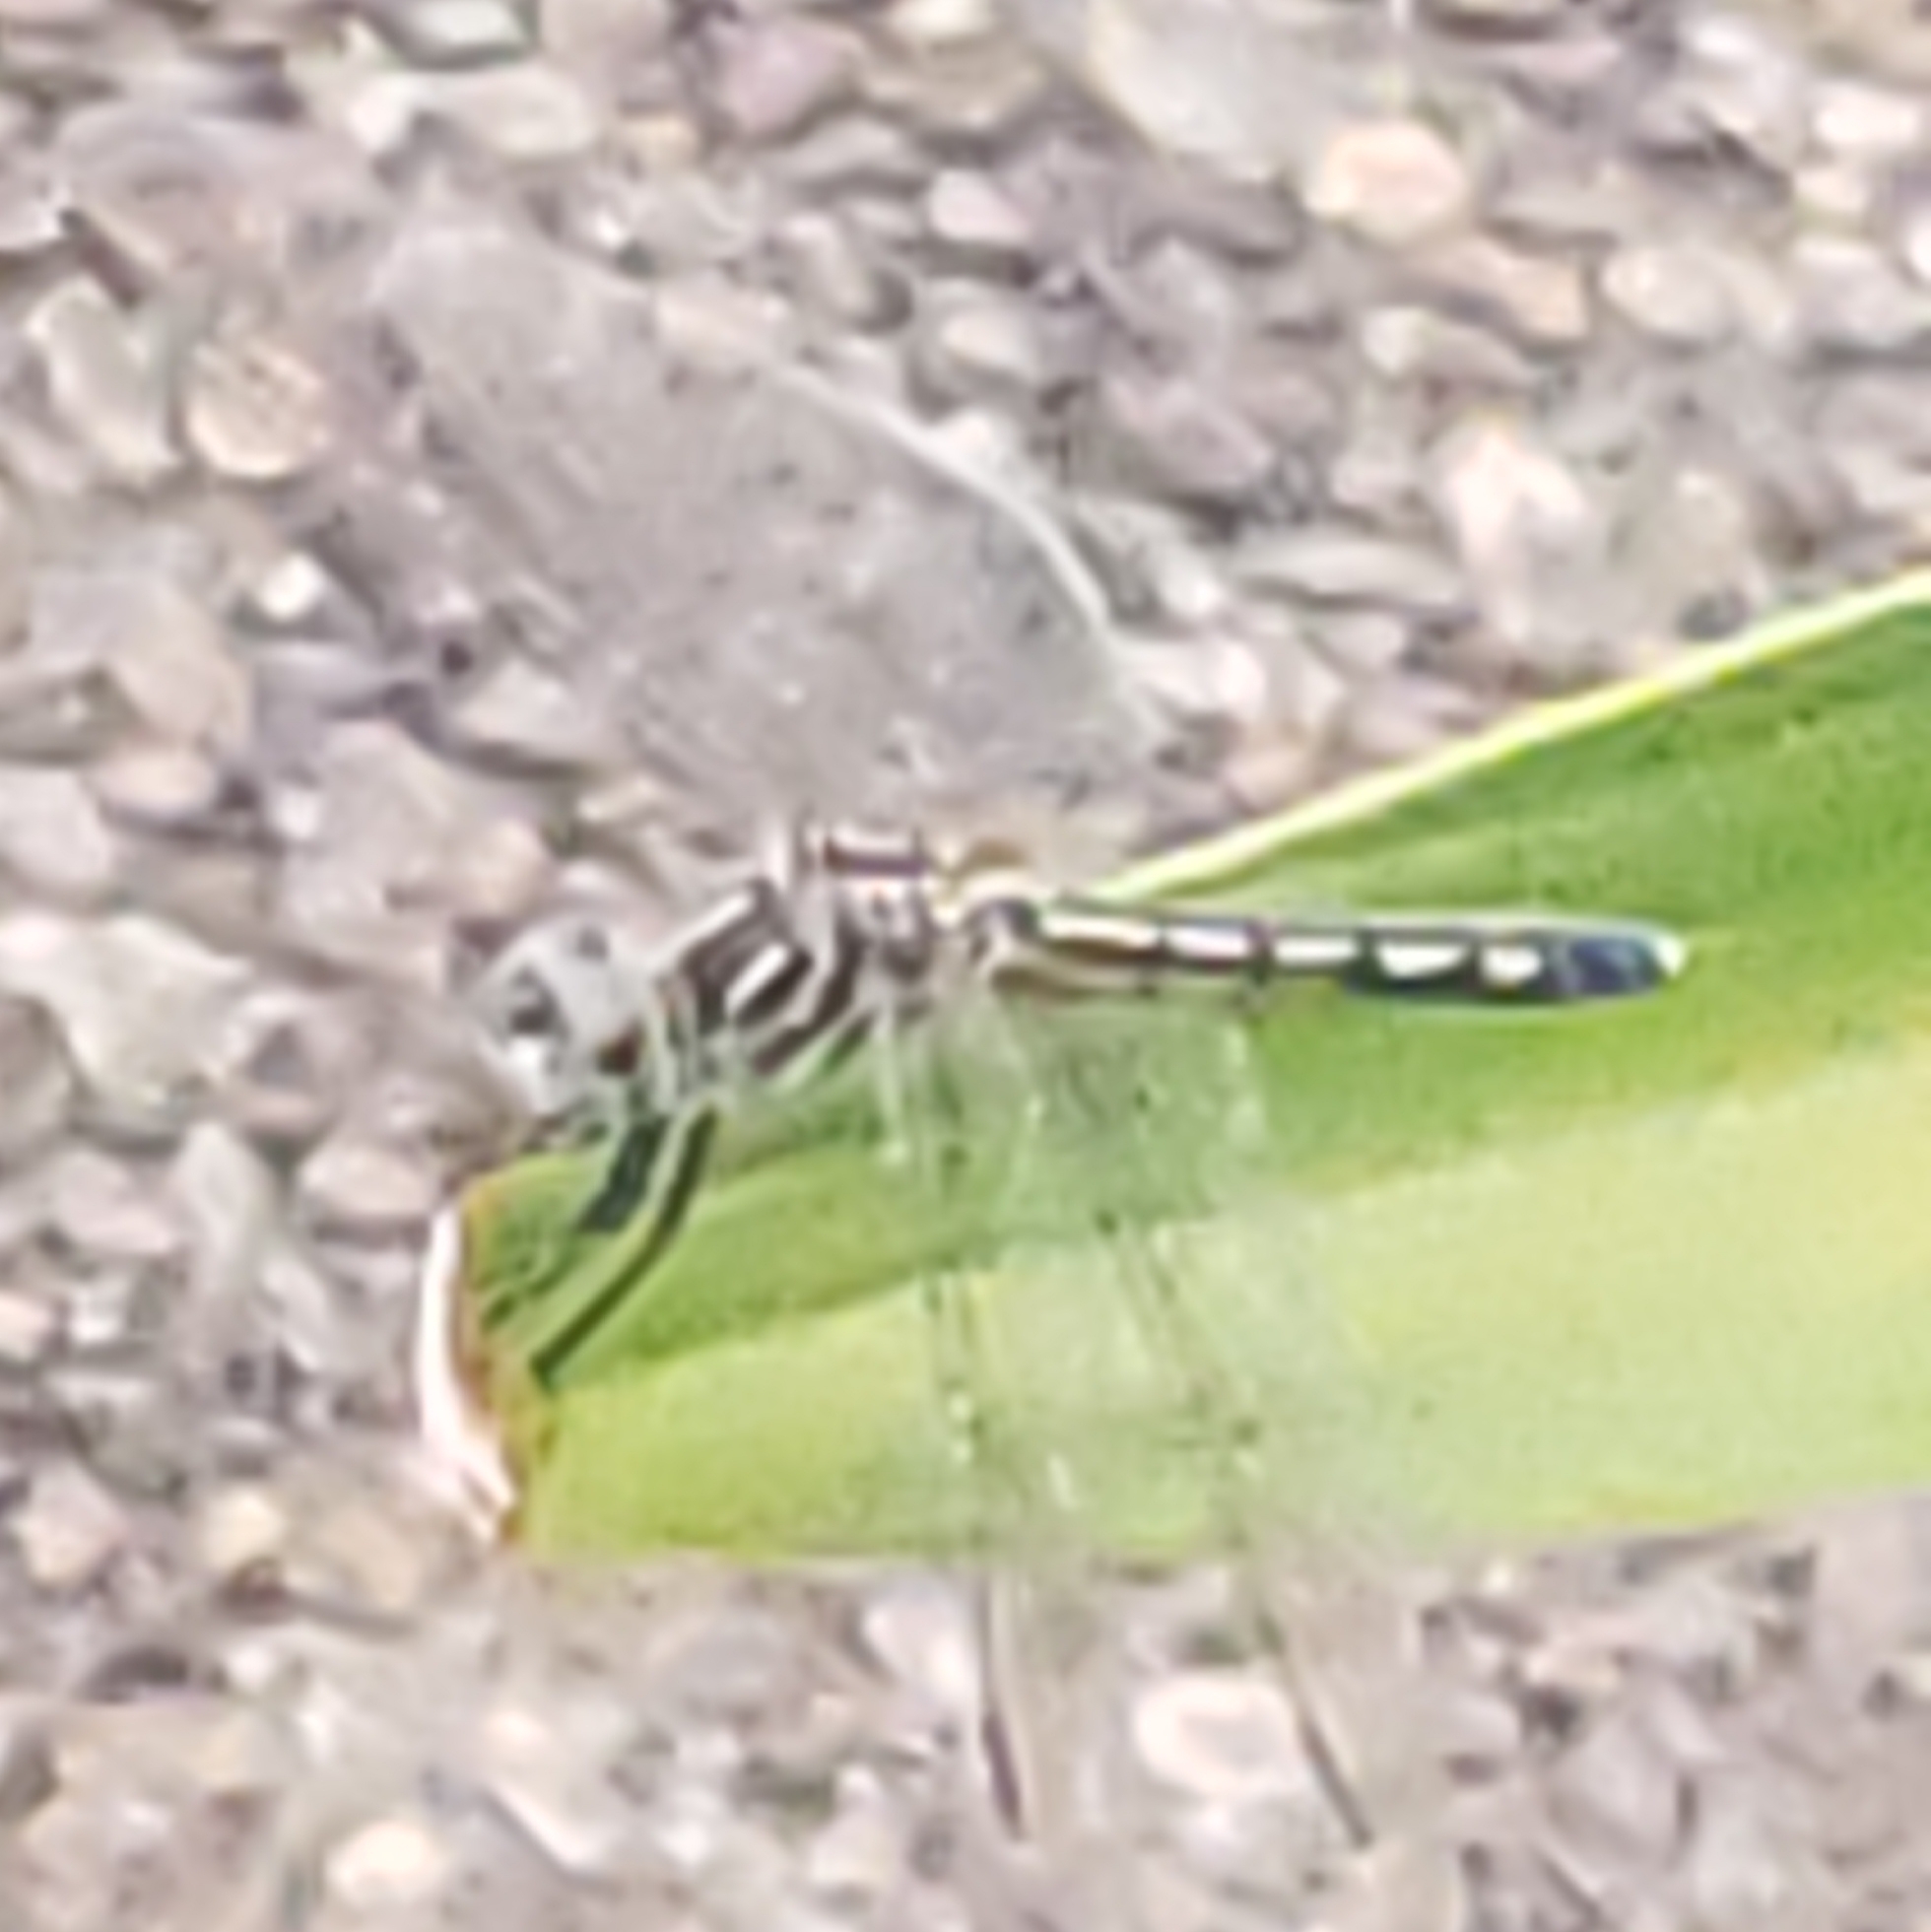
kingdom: Animalia
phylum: Arthropoda
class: Insecta
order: Odonata
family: Libellulidae
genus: Pachydiplax
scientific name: Pachydiplax longipennis
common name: Blue dasher
